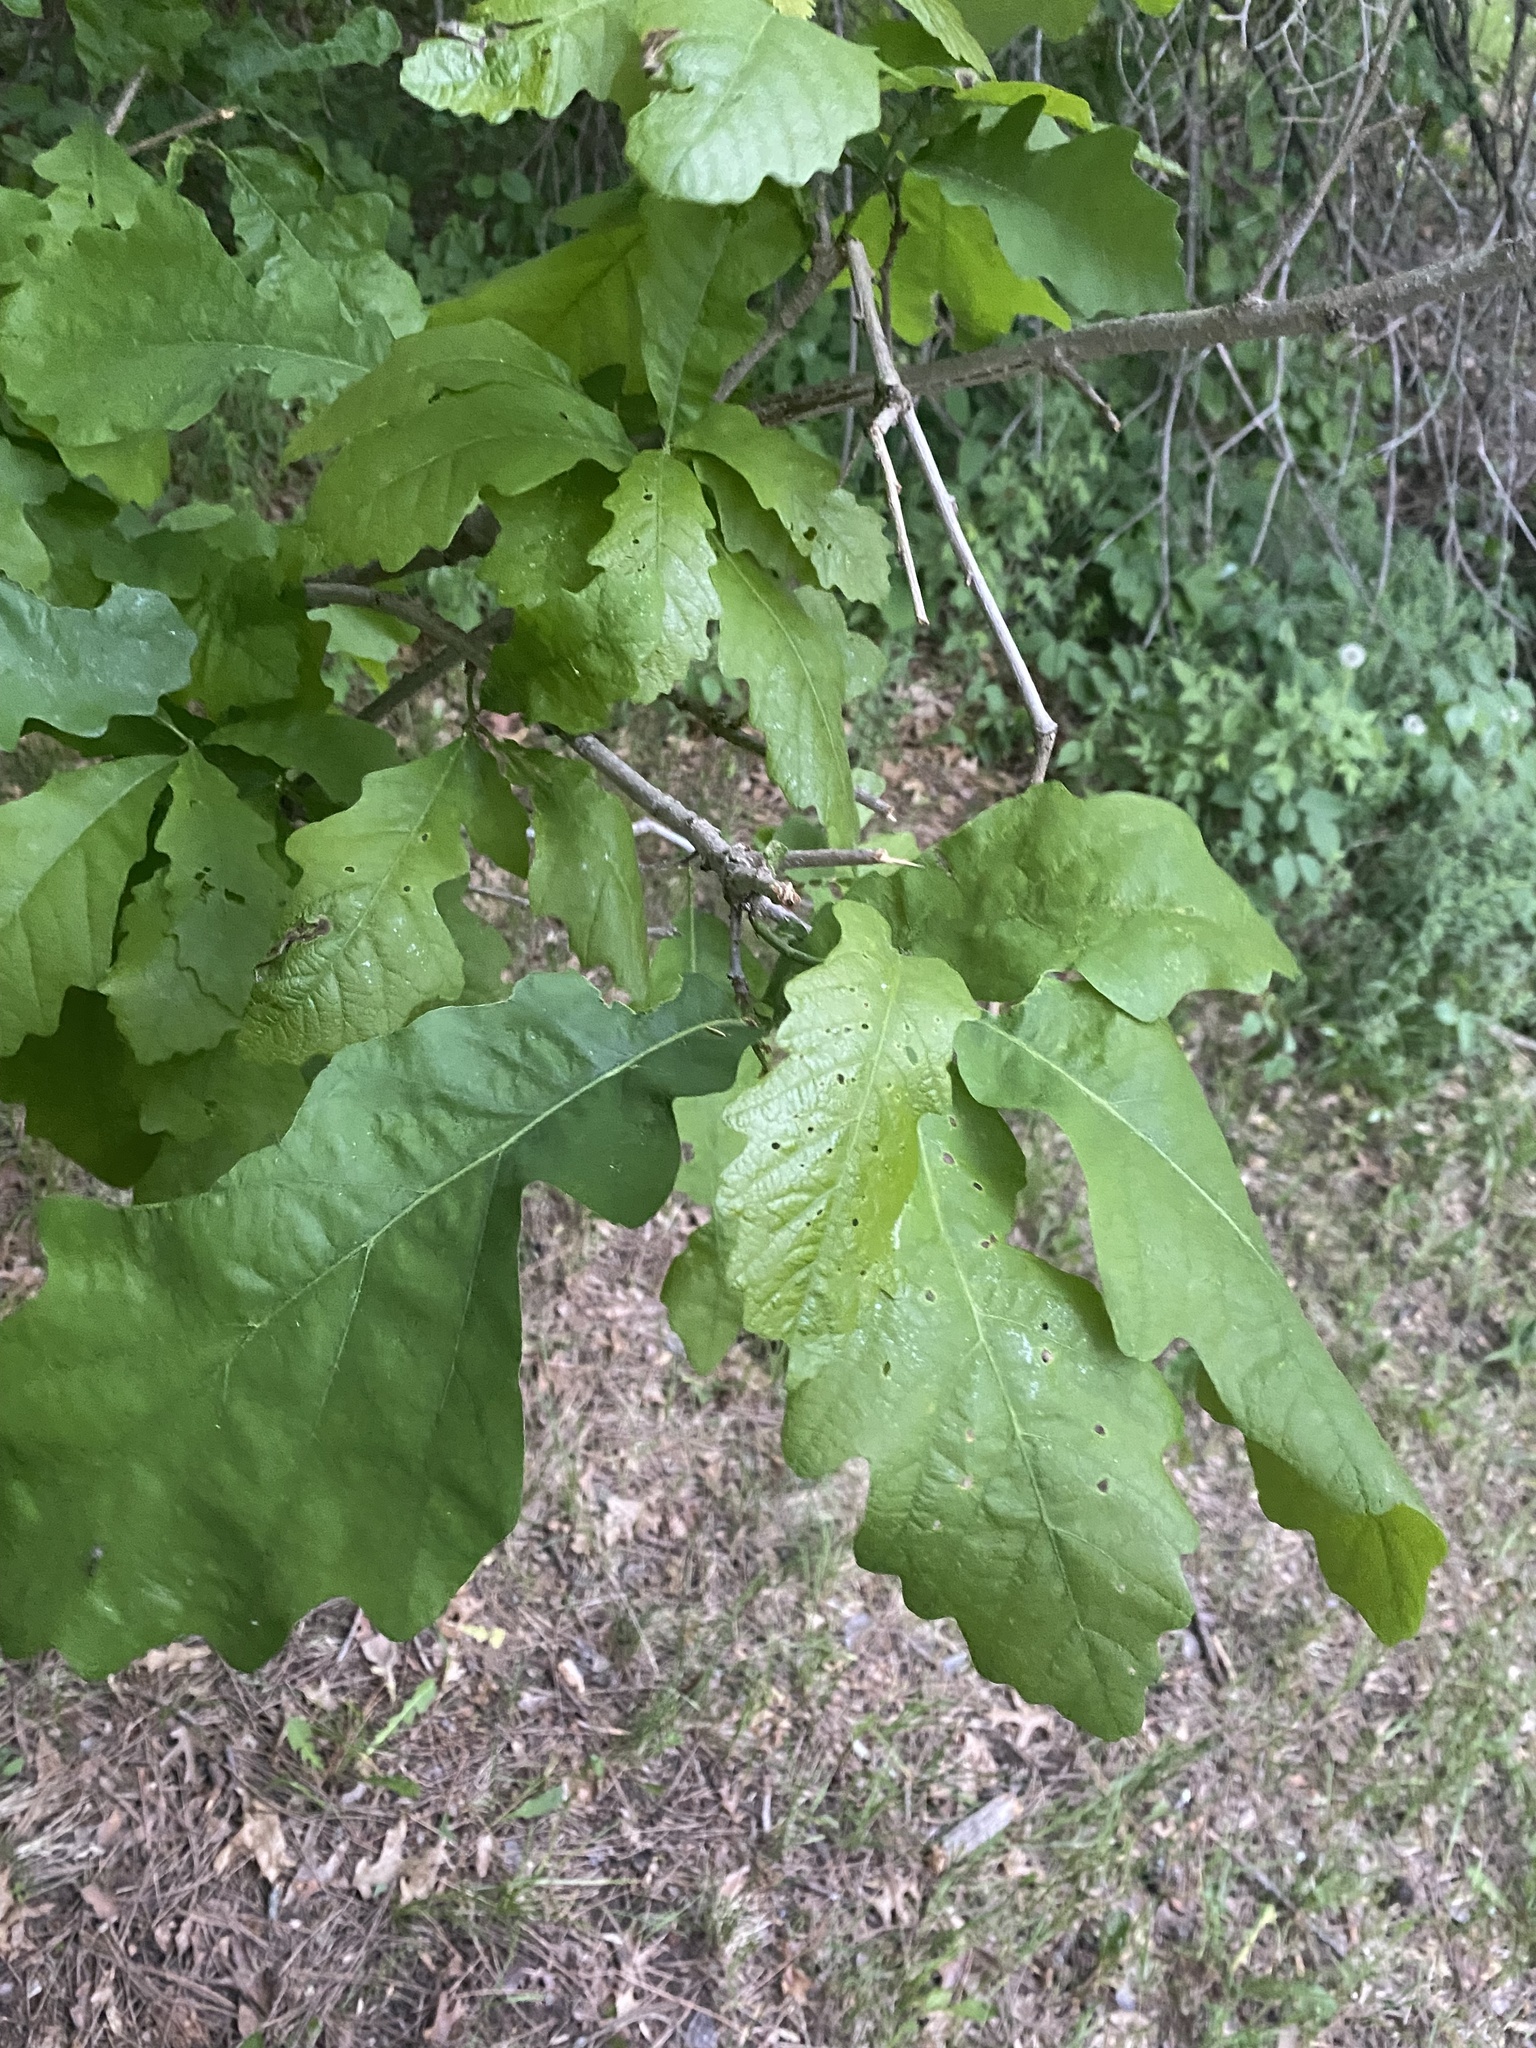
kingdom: Plantae
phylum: Tracheophyta
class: Magnoliopsida
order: Fagales
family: Fagaceae
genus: Quercus
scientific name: Quercus macrocarpa
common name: Bur oak
